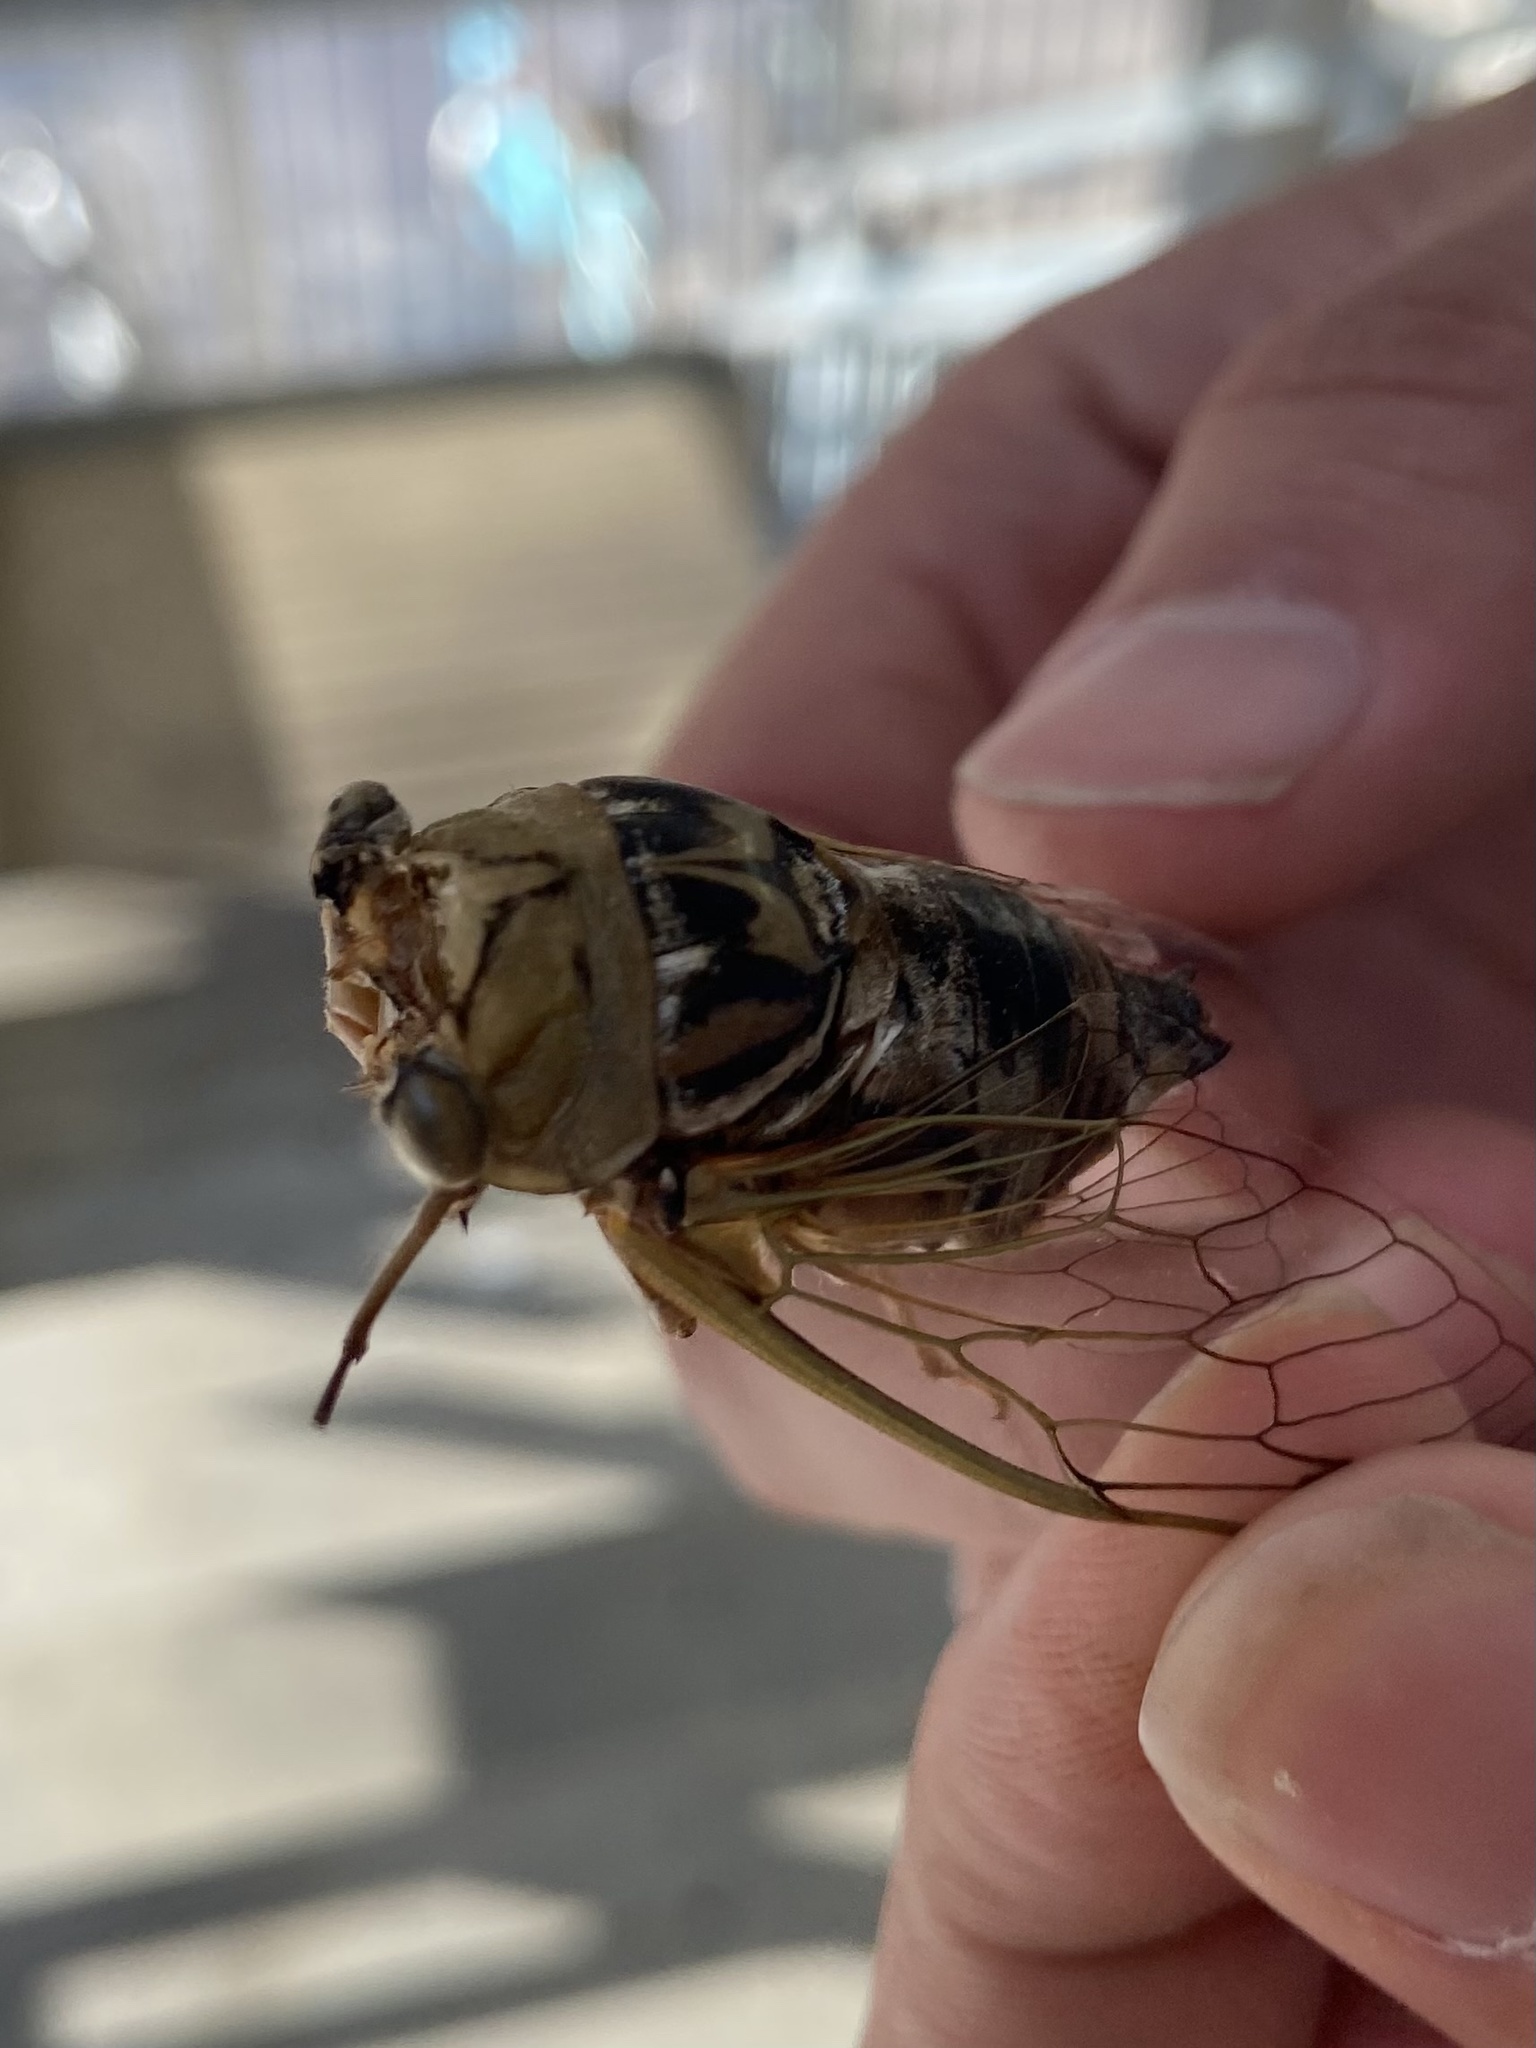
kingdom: Animalia
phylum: Arthropoda
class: Insecta
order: Hemiptera
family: Cicadidae
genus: Megatibicen
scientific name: Megatibicen resh
